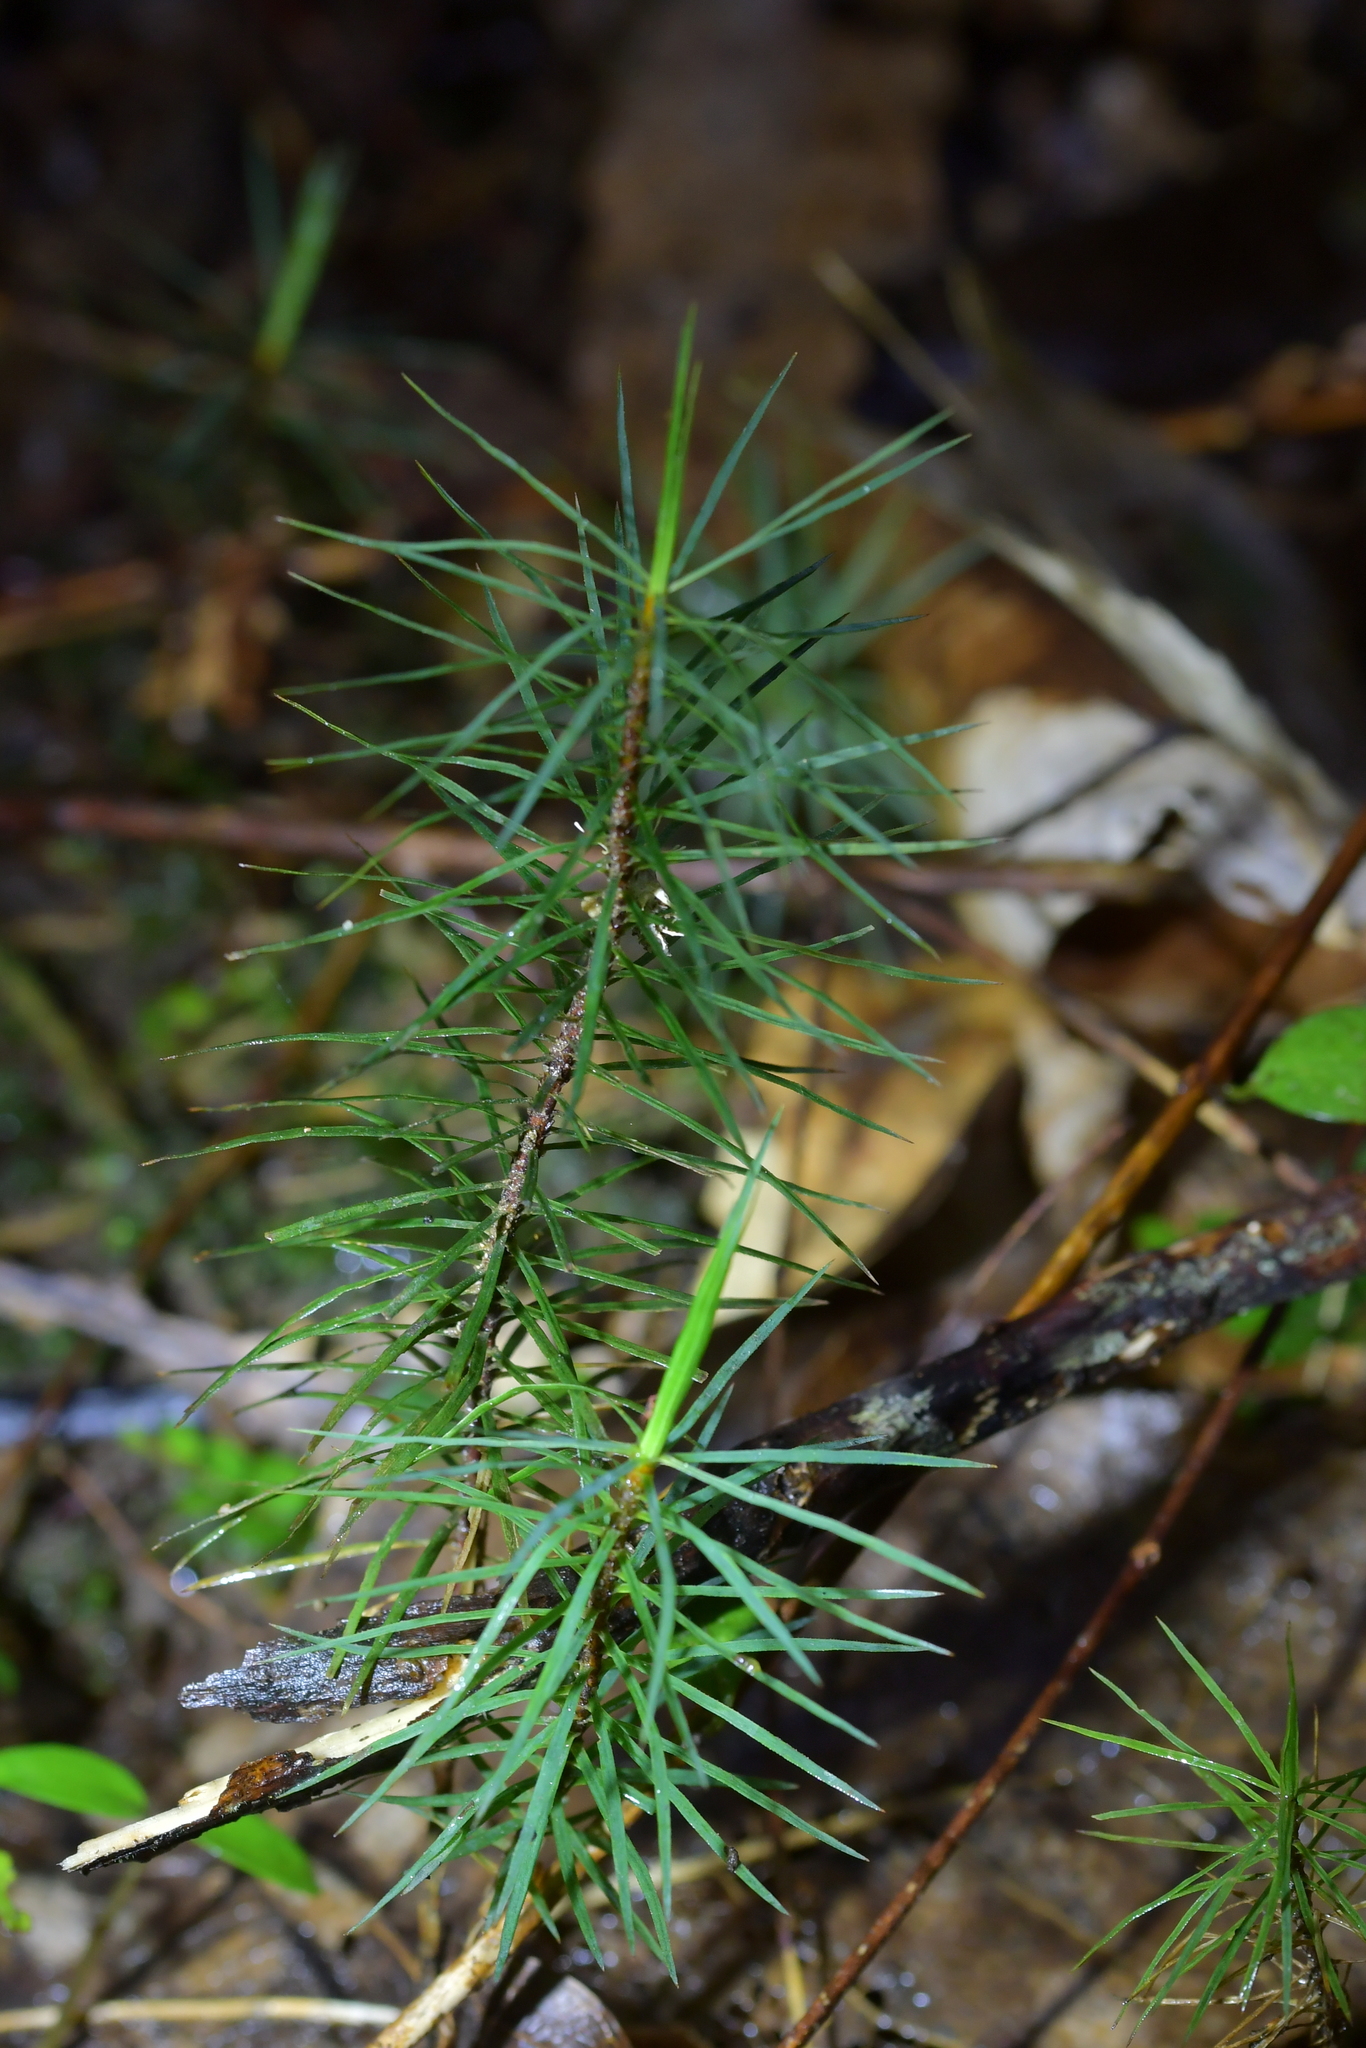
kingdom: Plantae
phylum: Bryophyta
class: Polytrichopsida
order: Polytrichales
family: Polytrichaceae
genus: Dawsonia
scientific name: Dawsonia superba
